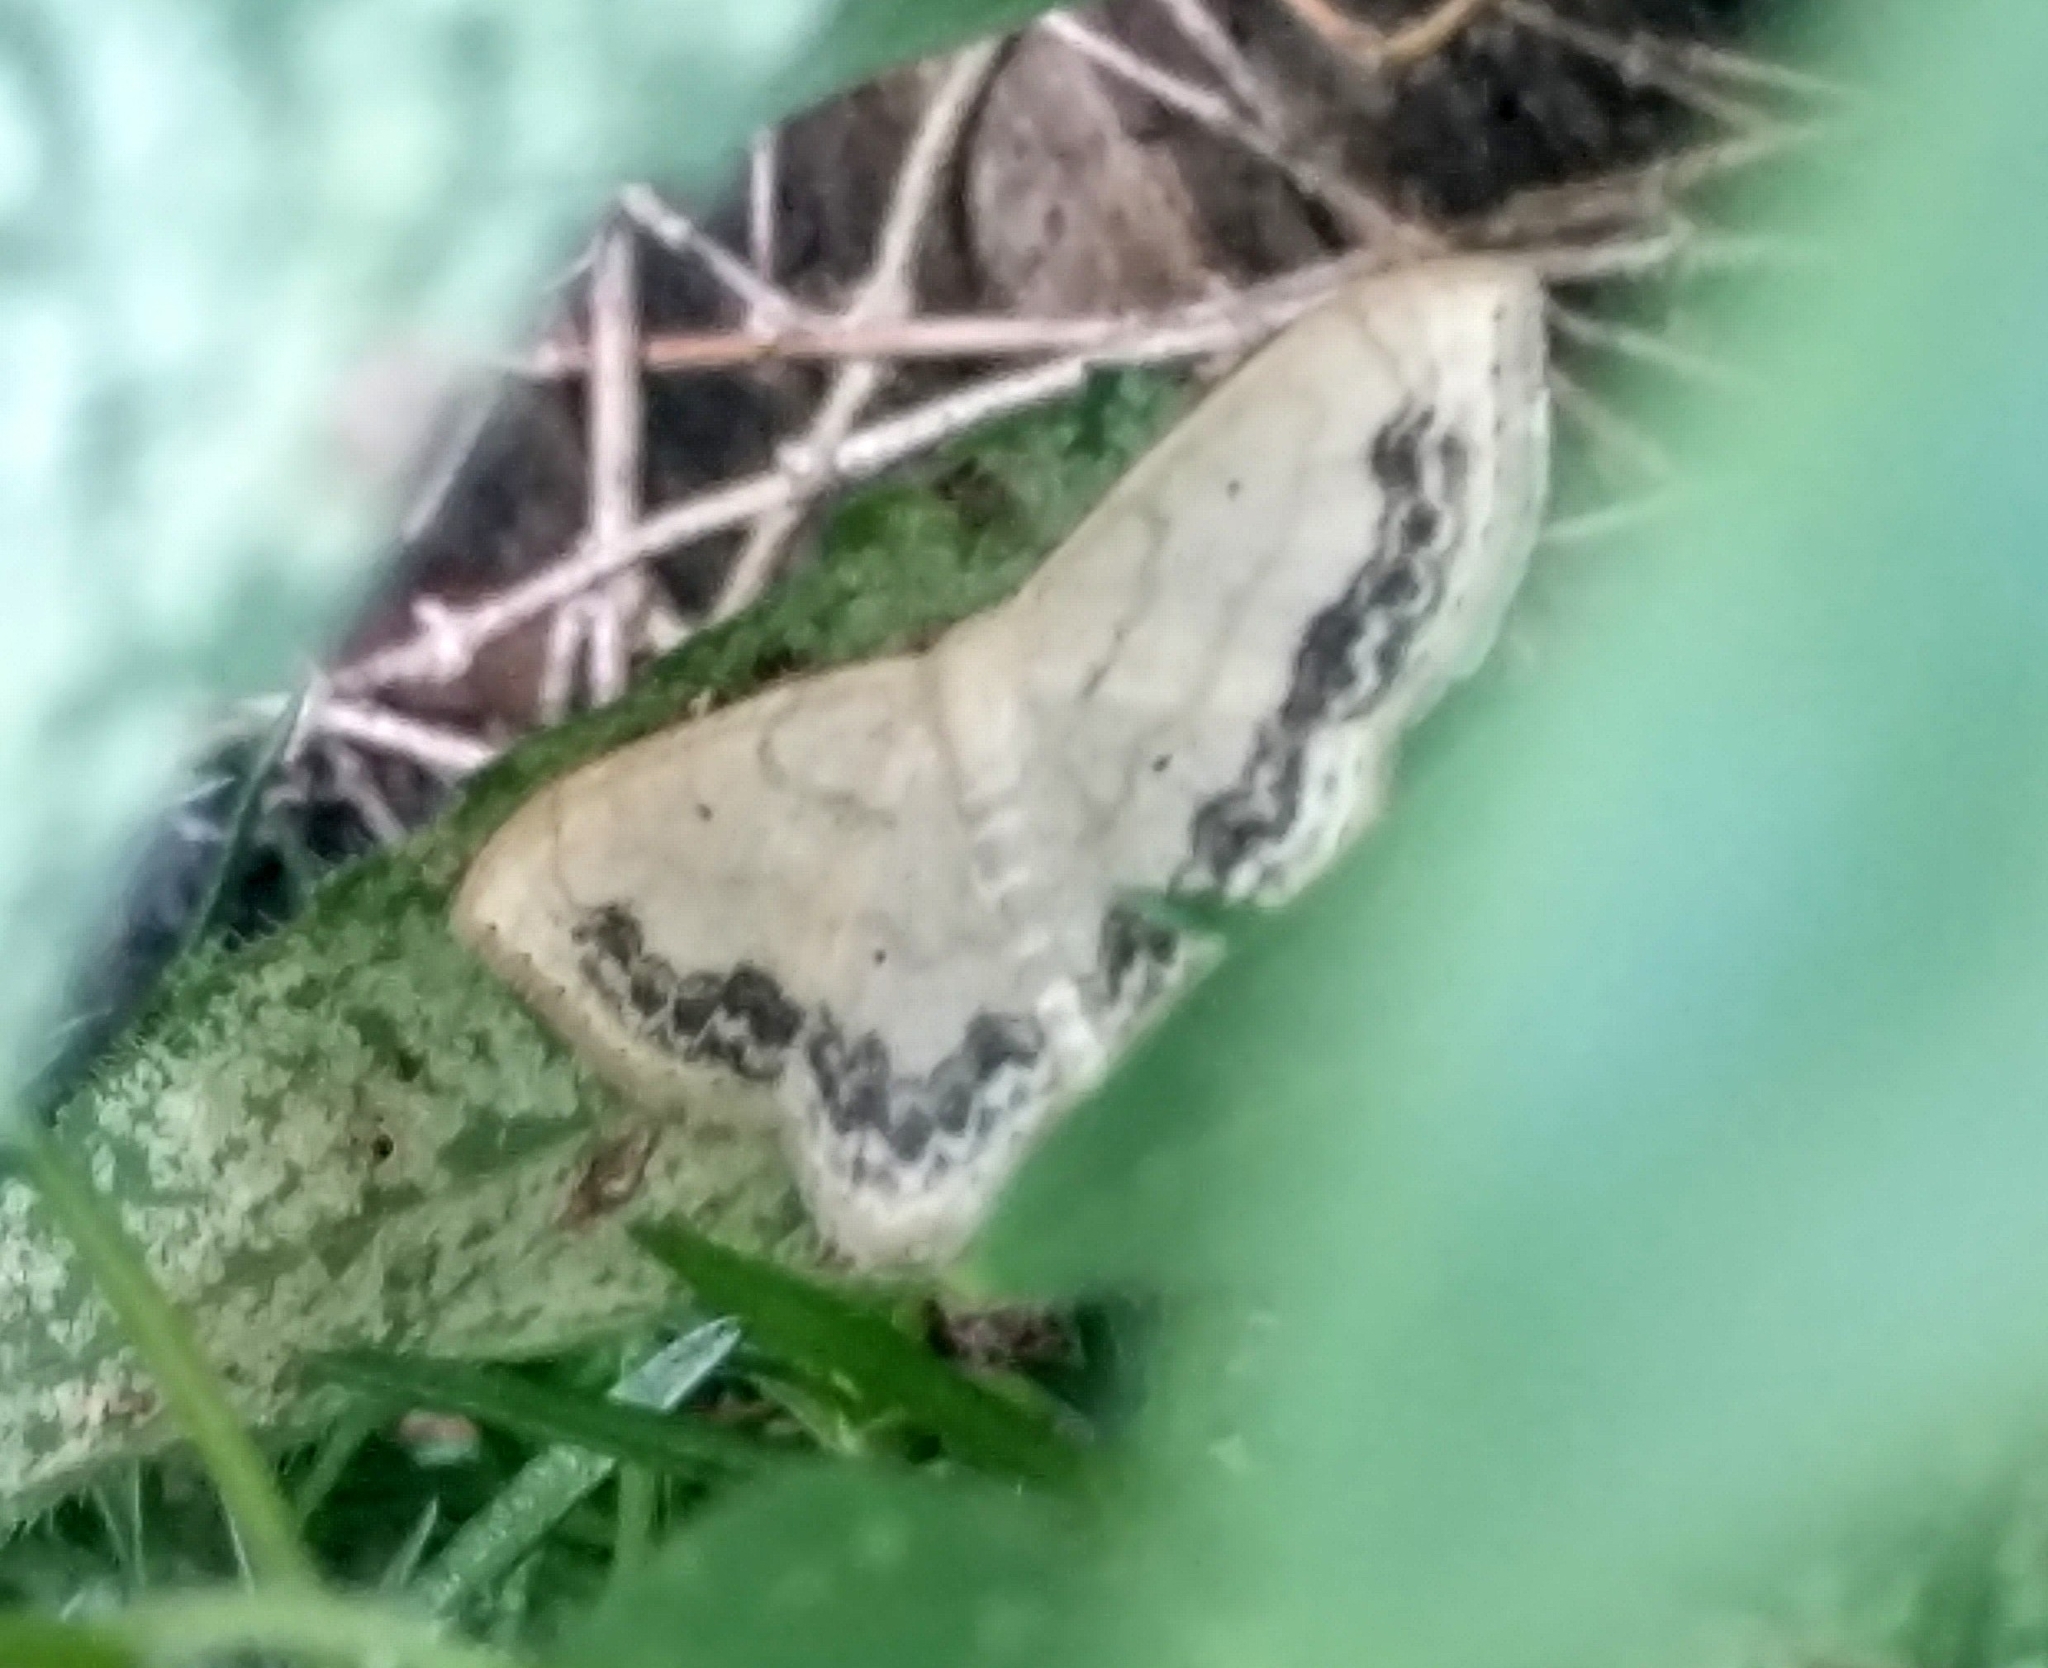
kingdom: Animalia
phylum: Arthropoda
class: Insecta
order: Lepidoptera
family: Geometridae
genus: Scopula
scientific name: Scopula limboundata
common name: Large lace border
